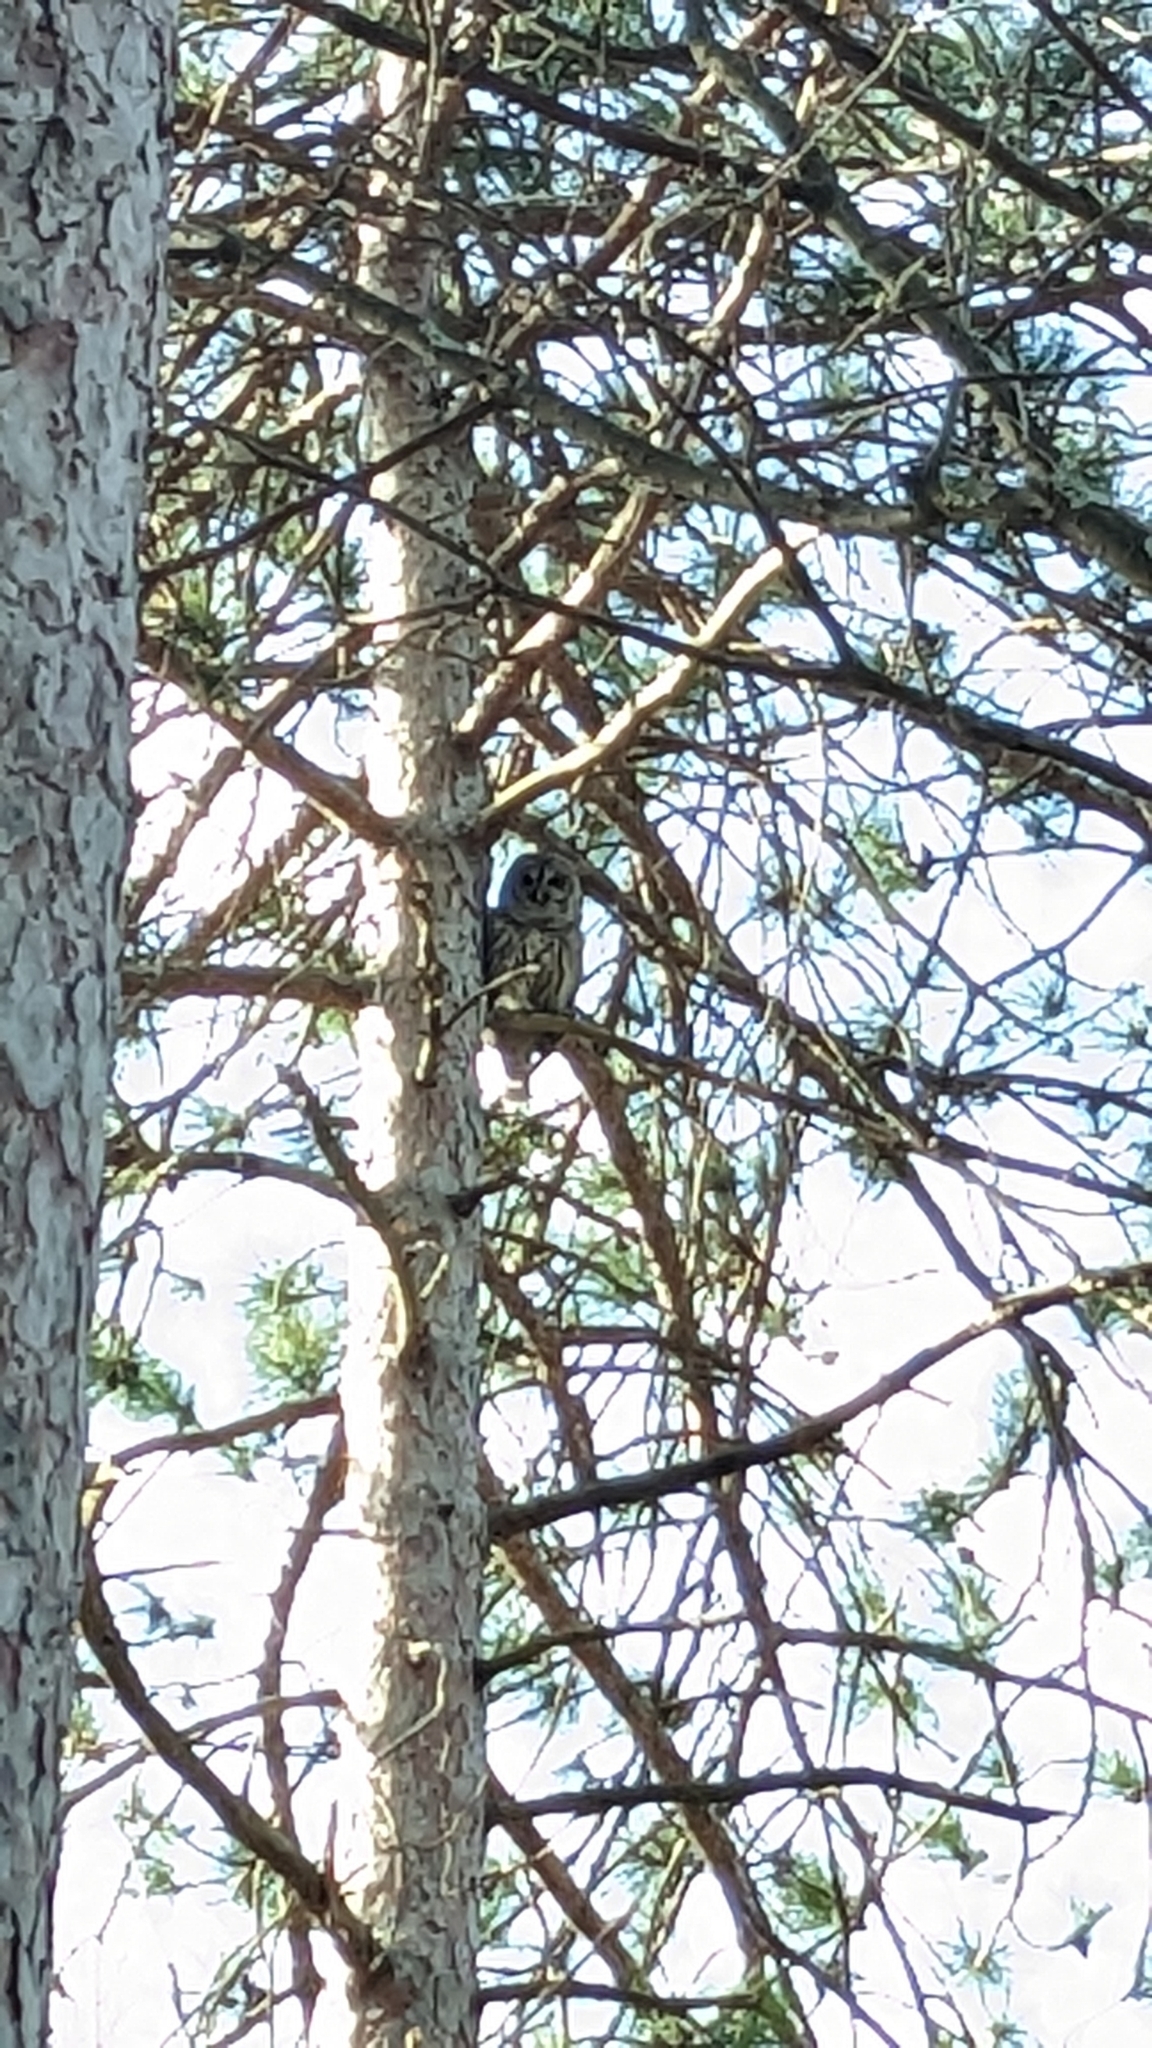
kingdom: Animalia
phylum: Chordata
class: Aves
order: Strigiformes
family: Strigidae
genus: Strix
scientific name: Strix varia
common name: Barred owl
